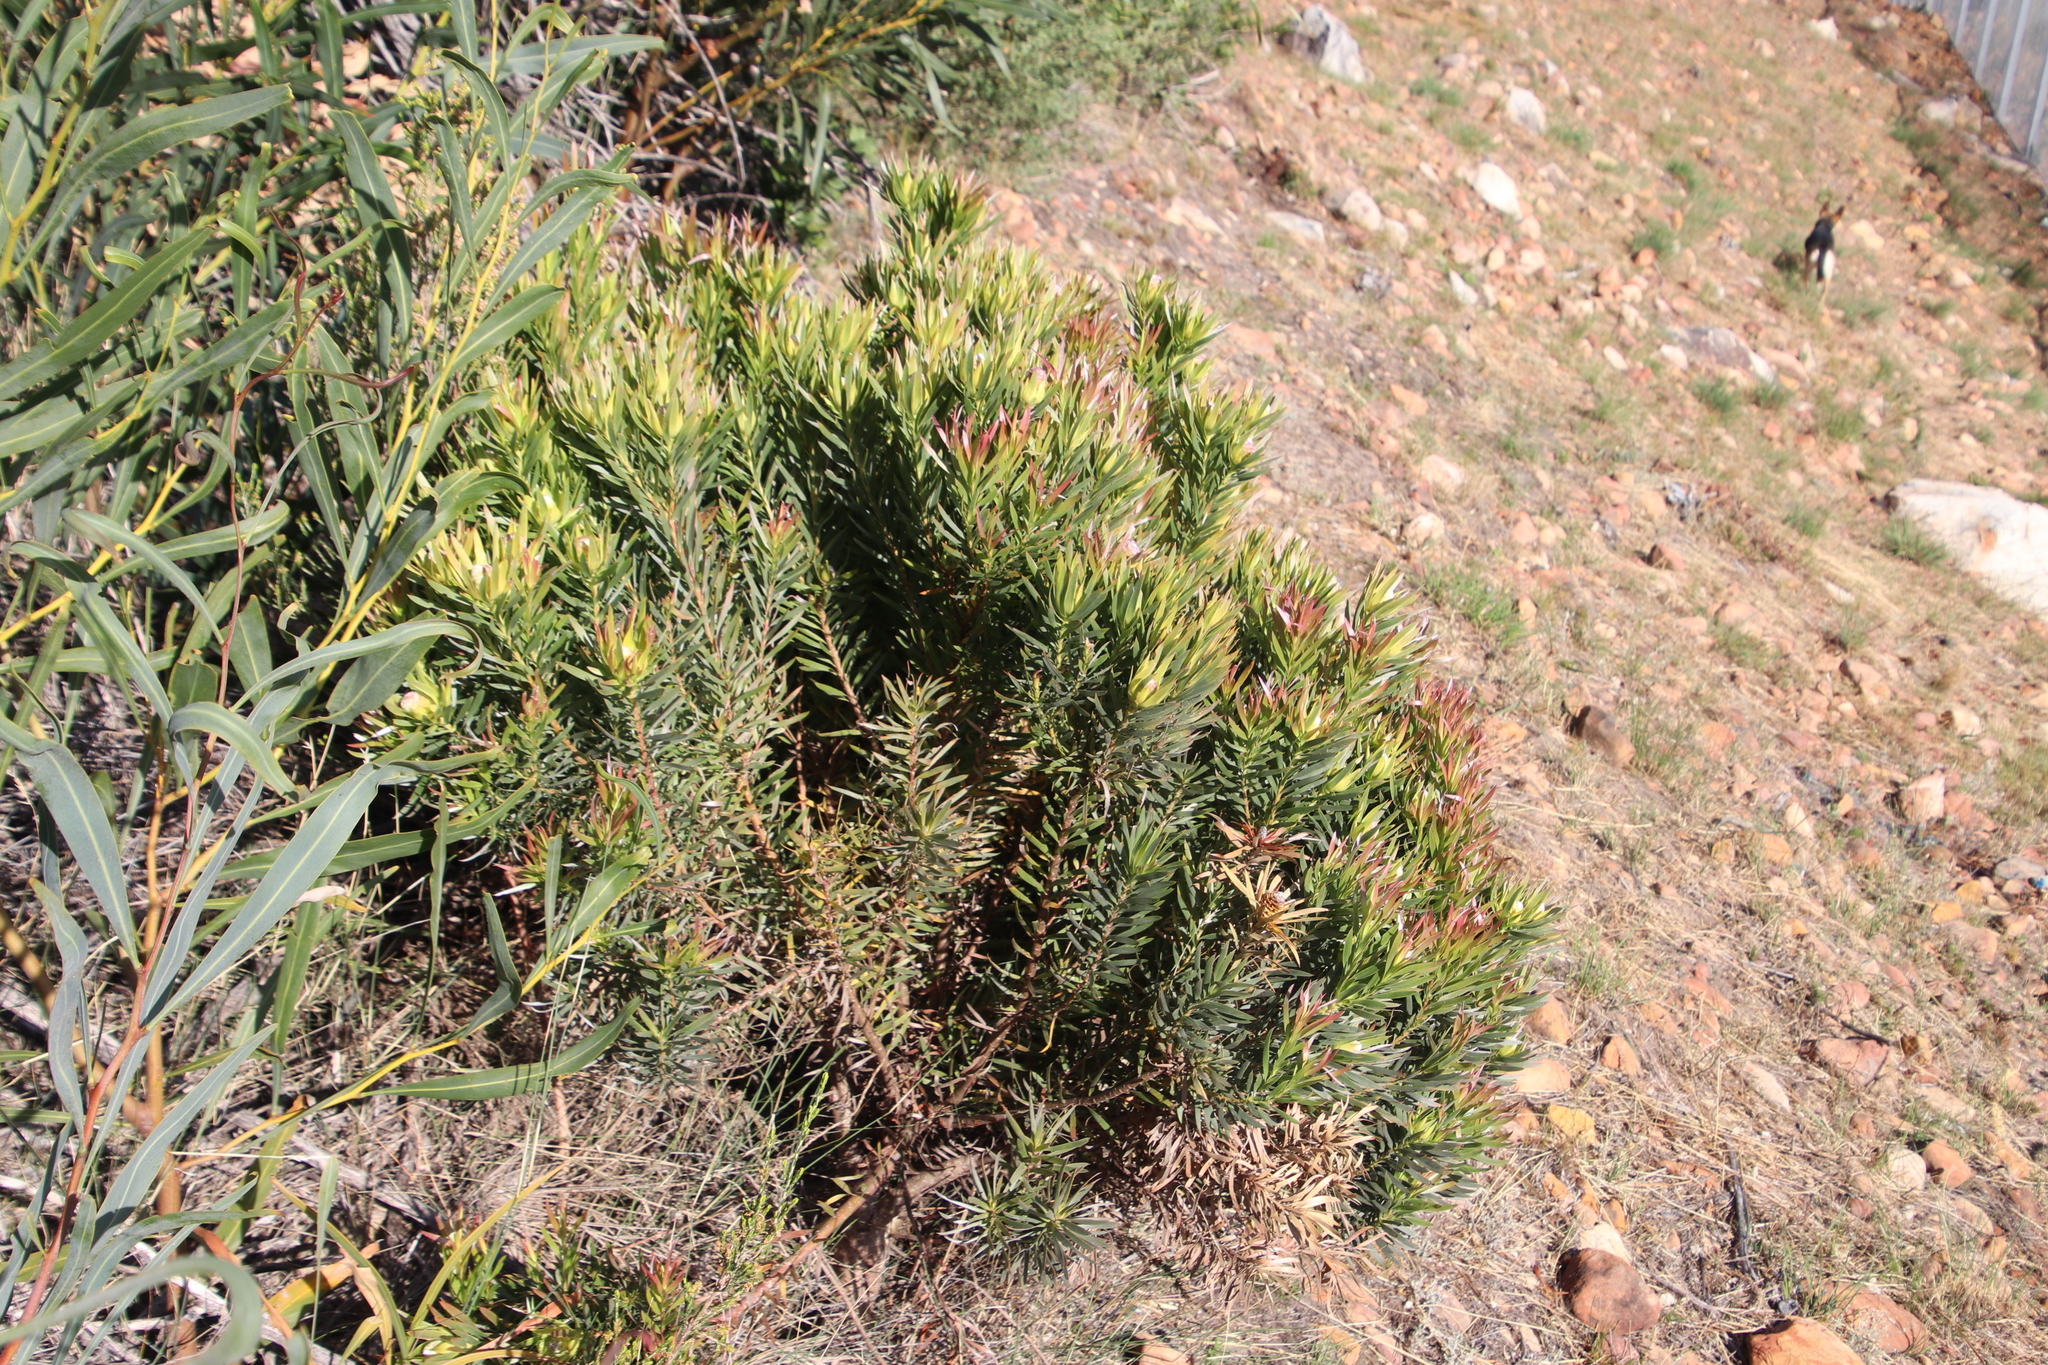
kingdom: Plantae
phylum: Tracheophyta
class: Magnoliopsida
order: Proteales
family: Proteaceae
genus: Leucadendron
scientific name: Leucadendron xanthoconus
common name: Sickle-leaf conebush
